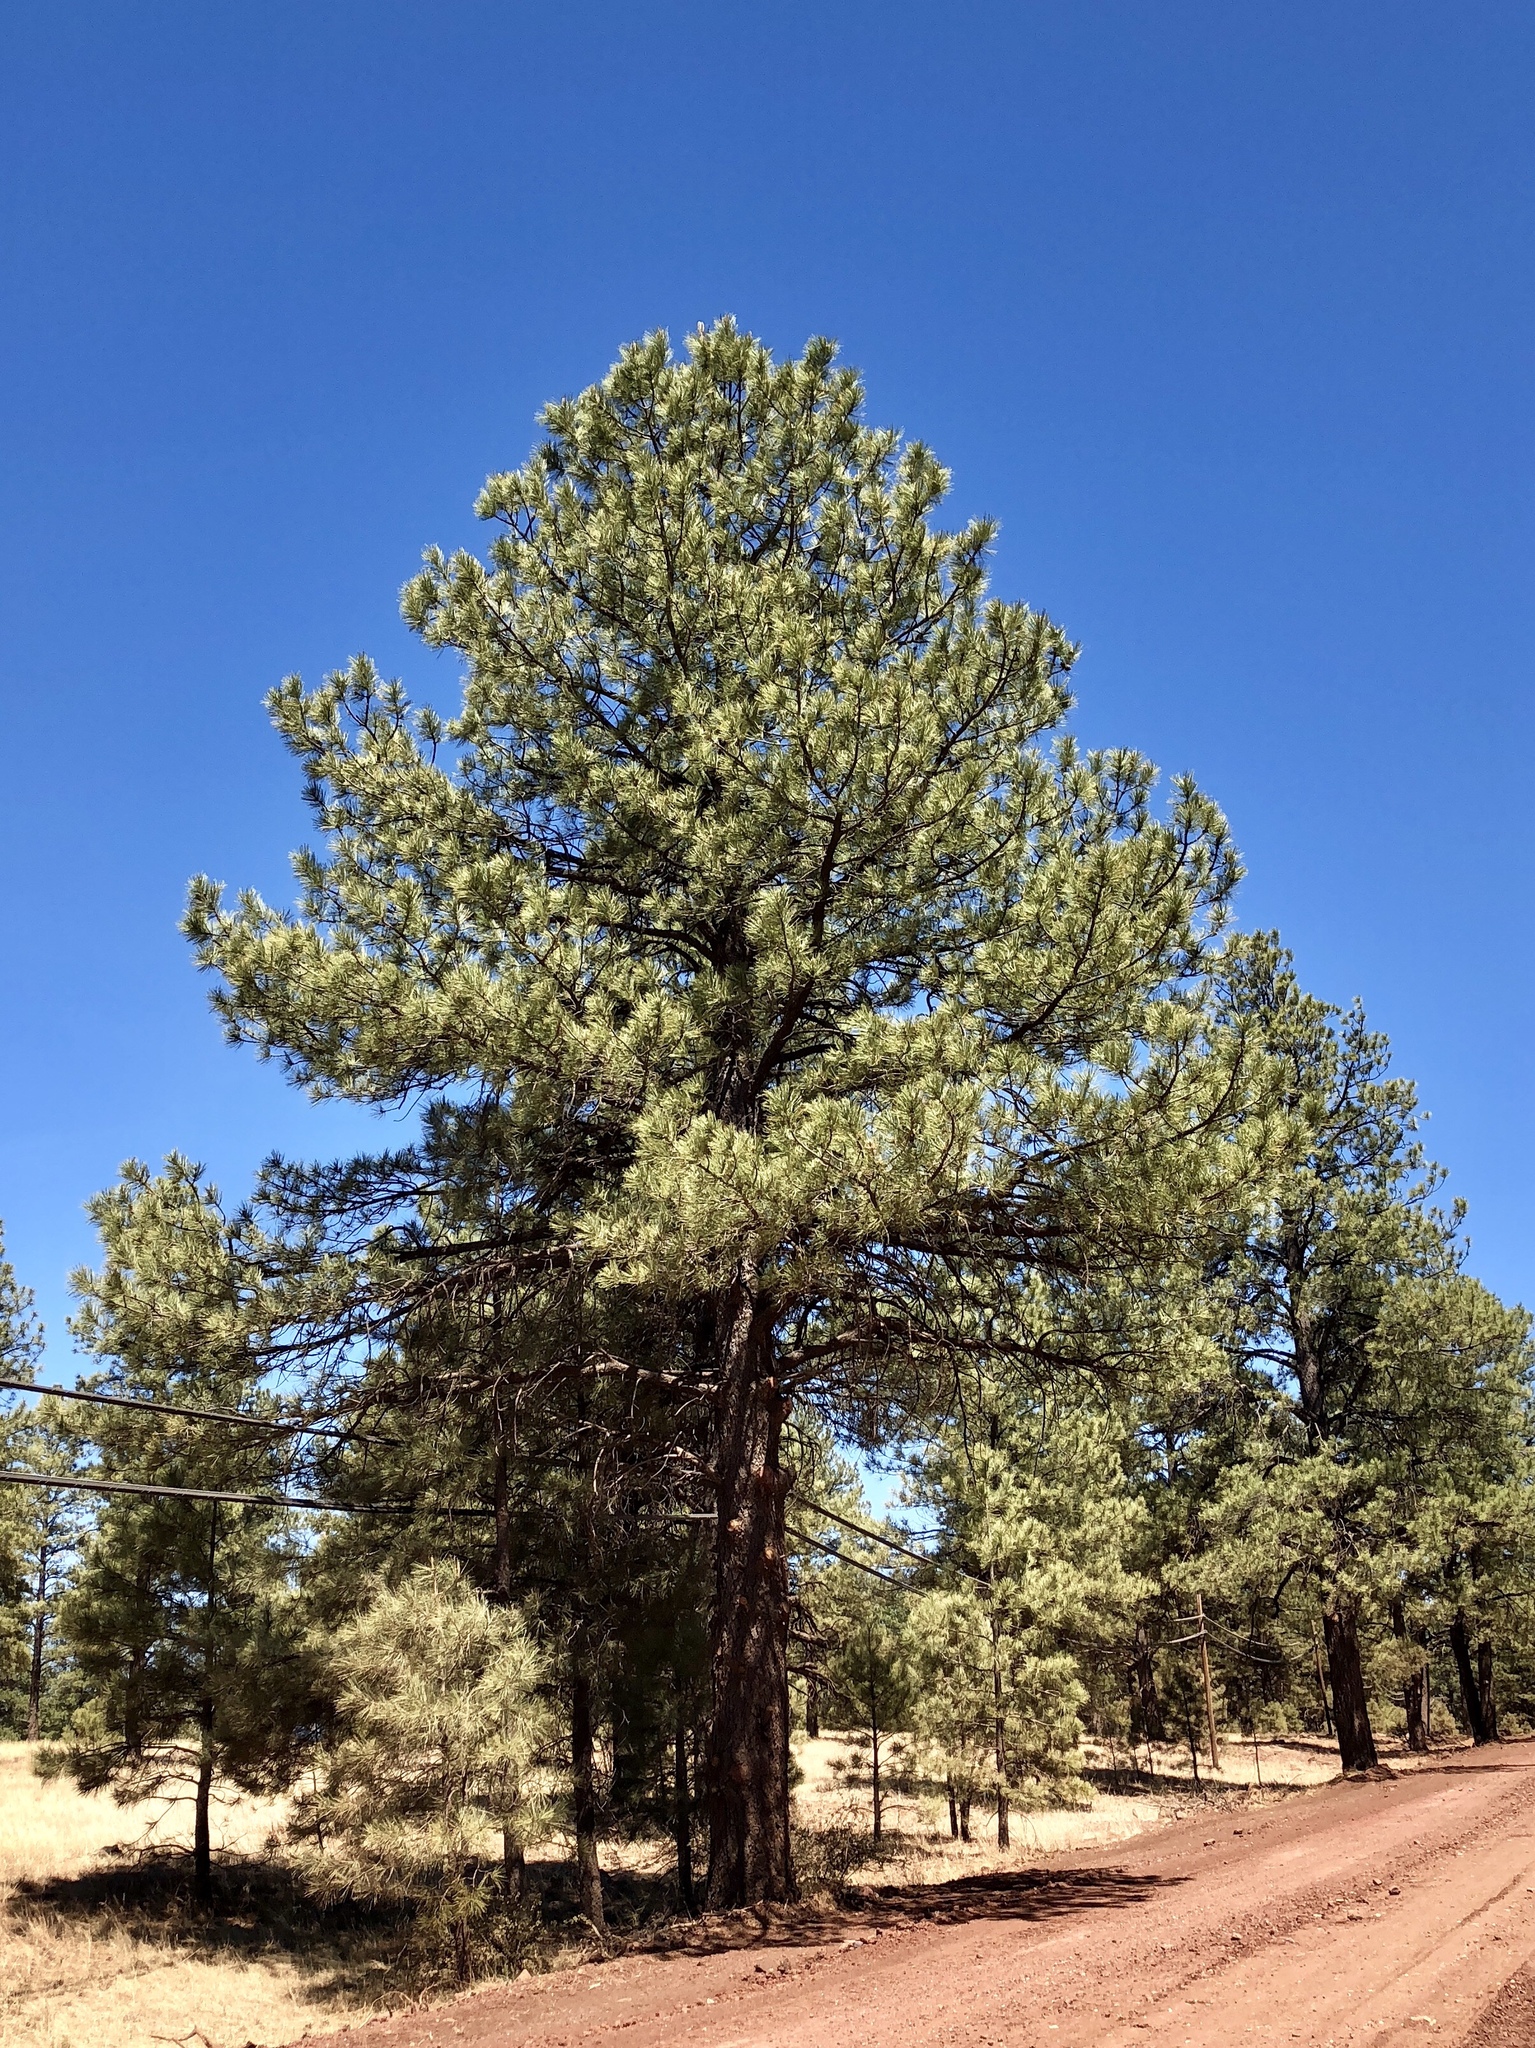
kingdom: Plantae
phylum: Tracheophyta
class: Pinopsida
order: Pinales
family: Pinaceae
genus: Pinus
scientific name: Pinus ponderosa
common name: Western yellow-pine
